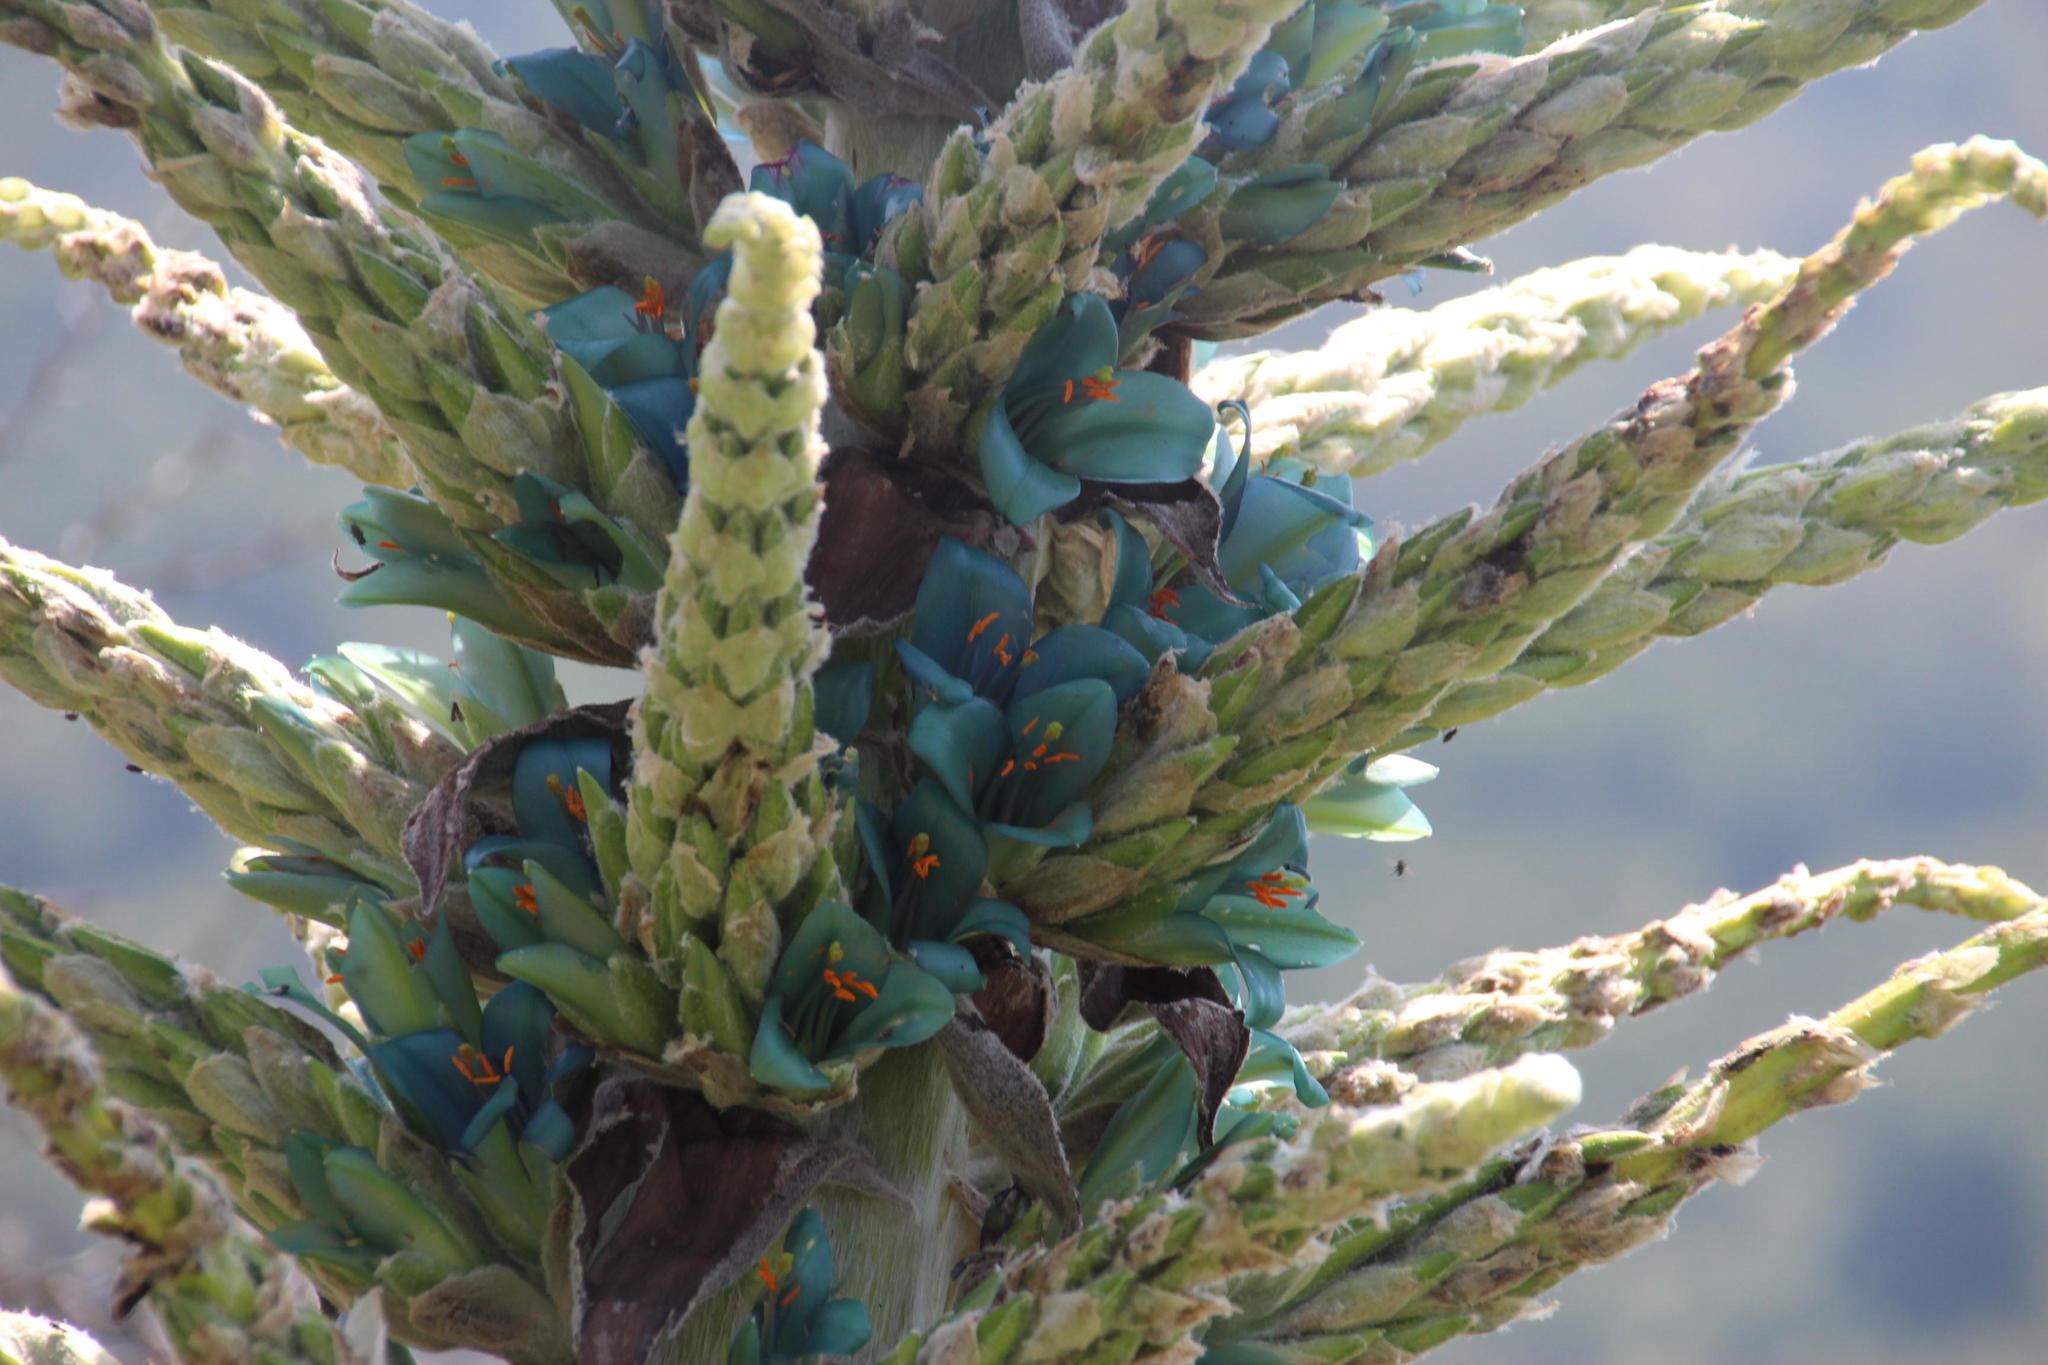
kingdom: Plantae
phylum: Tracheophyta
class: Liliopsida
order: Poales
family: Bromeliaceae
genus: Puya
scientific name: Puya alpestris
